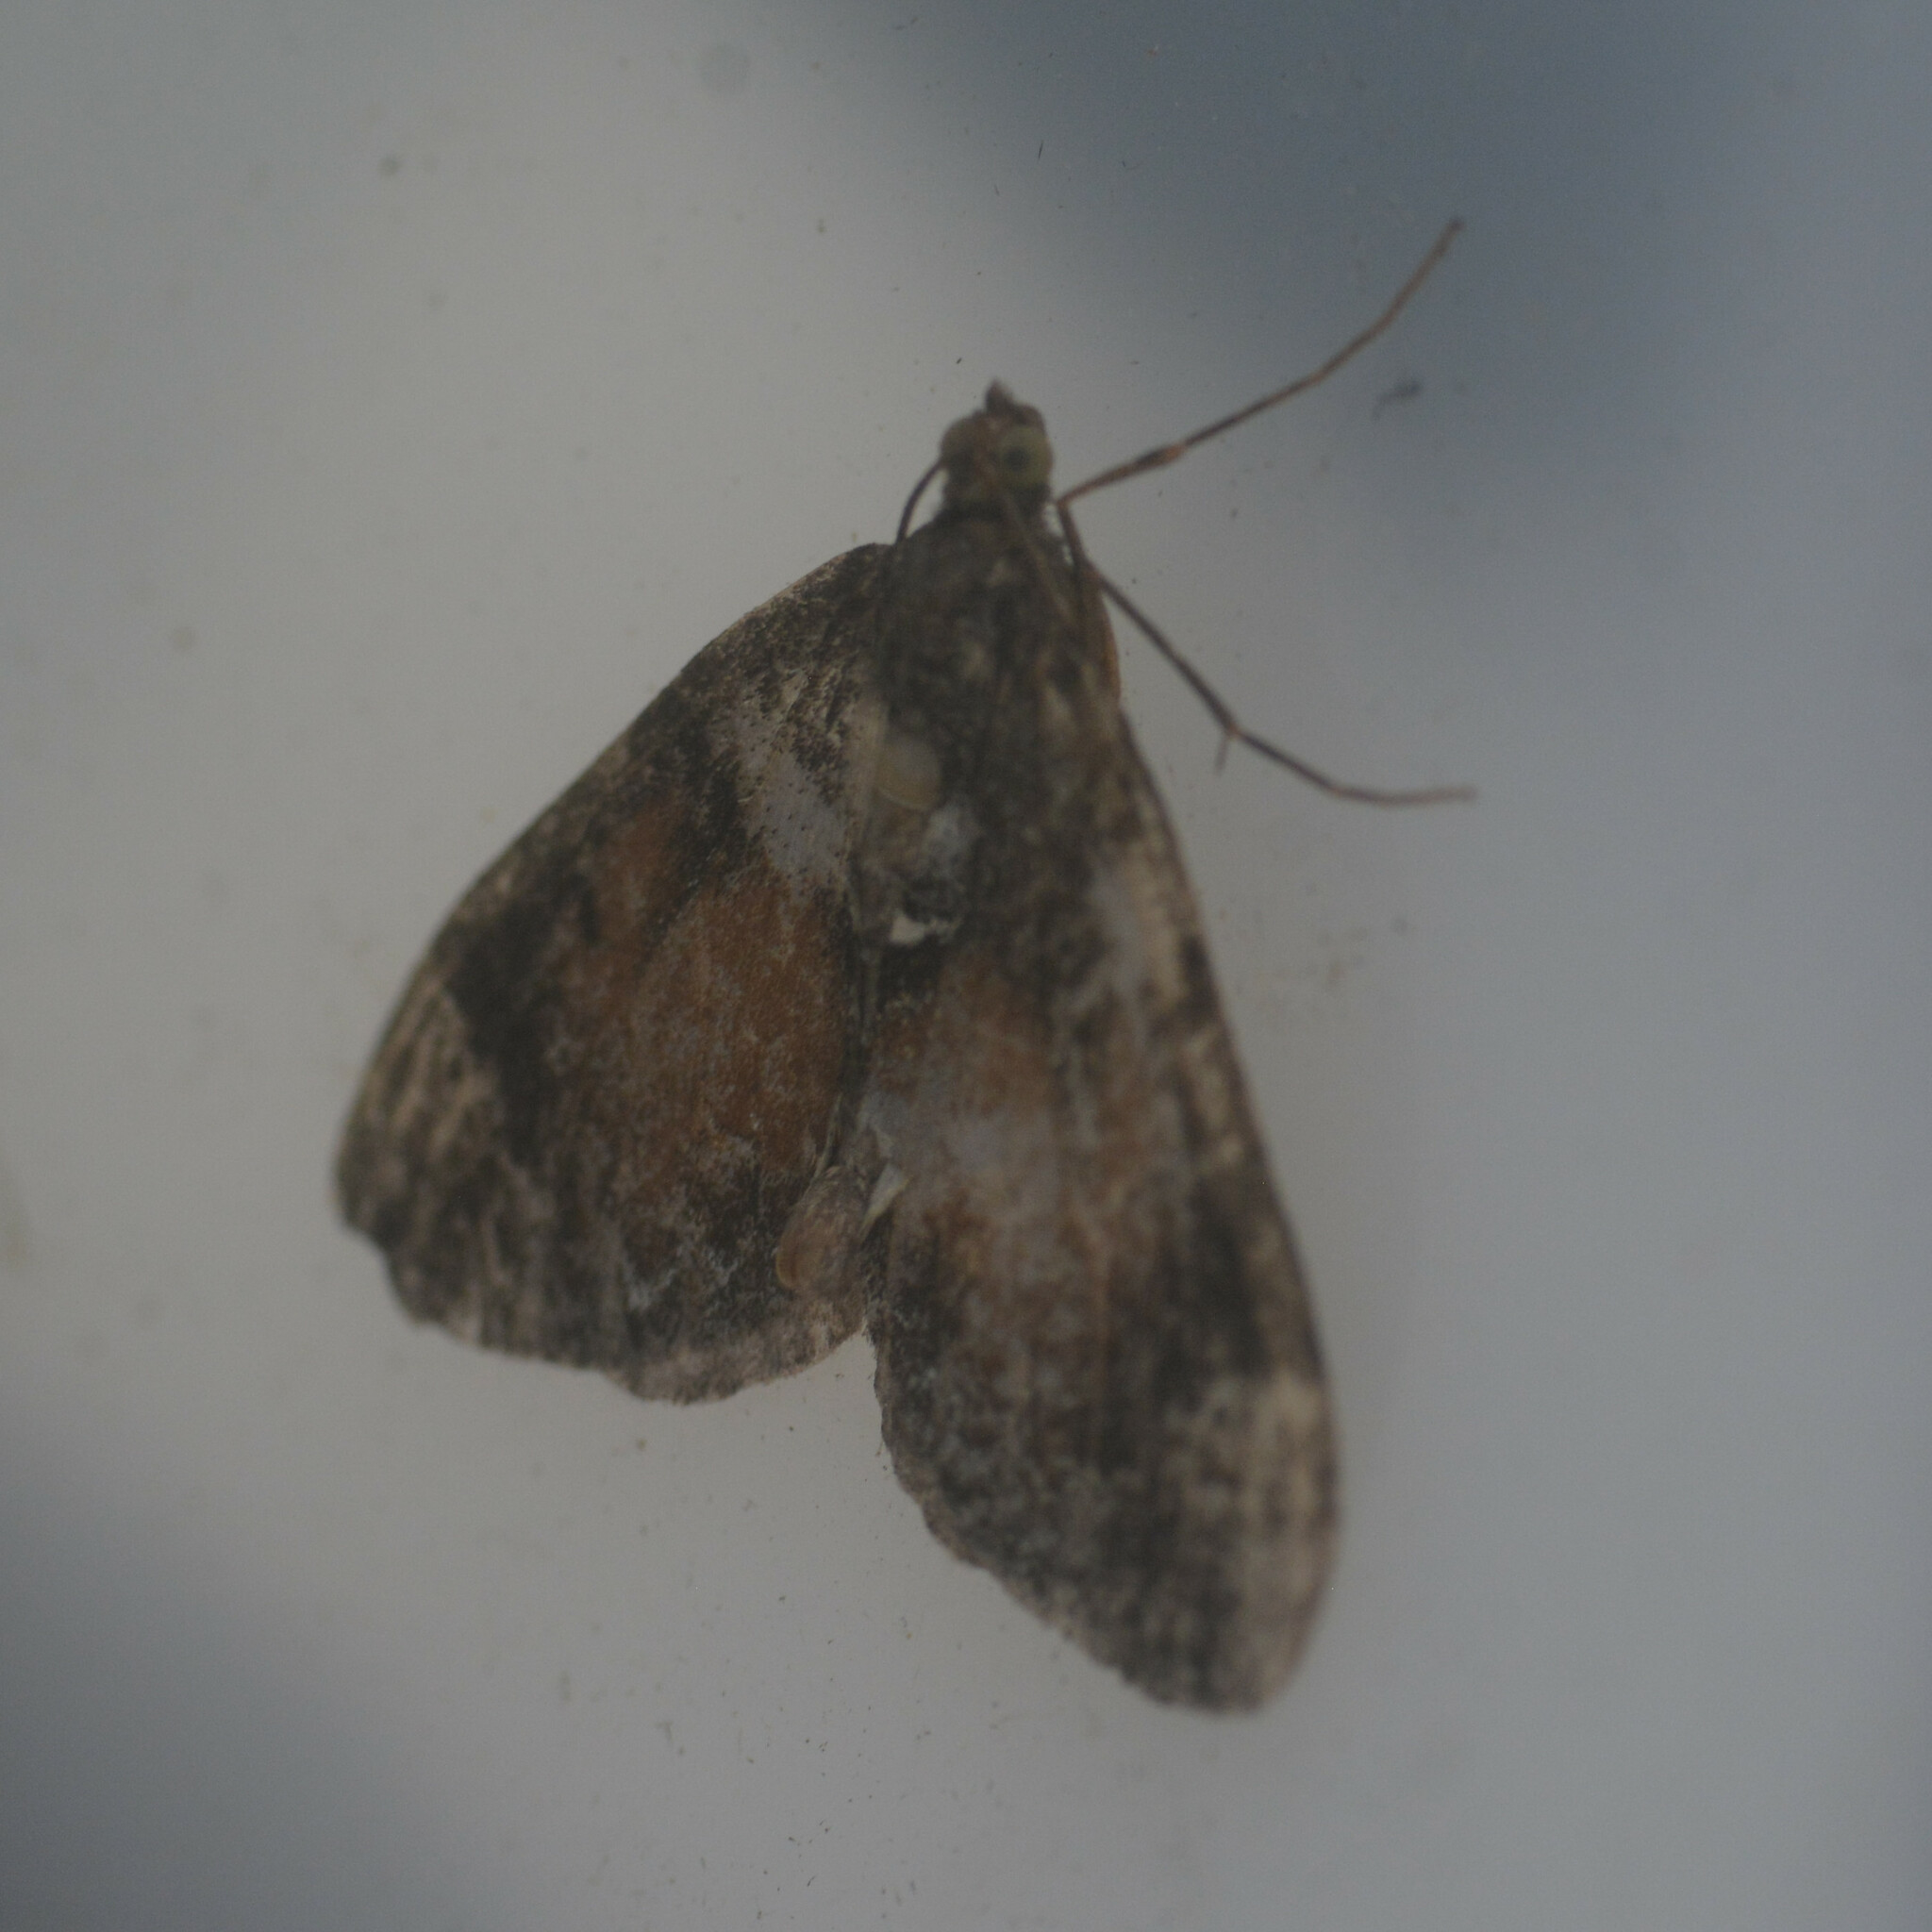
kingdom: Animalia
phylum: Arthropoda
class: Insecta
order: Lepidoptera
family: Geometridae
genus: Dysstroma
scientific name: Dysstroma truncata
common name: Common marbled carpet
